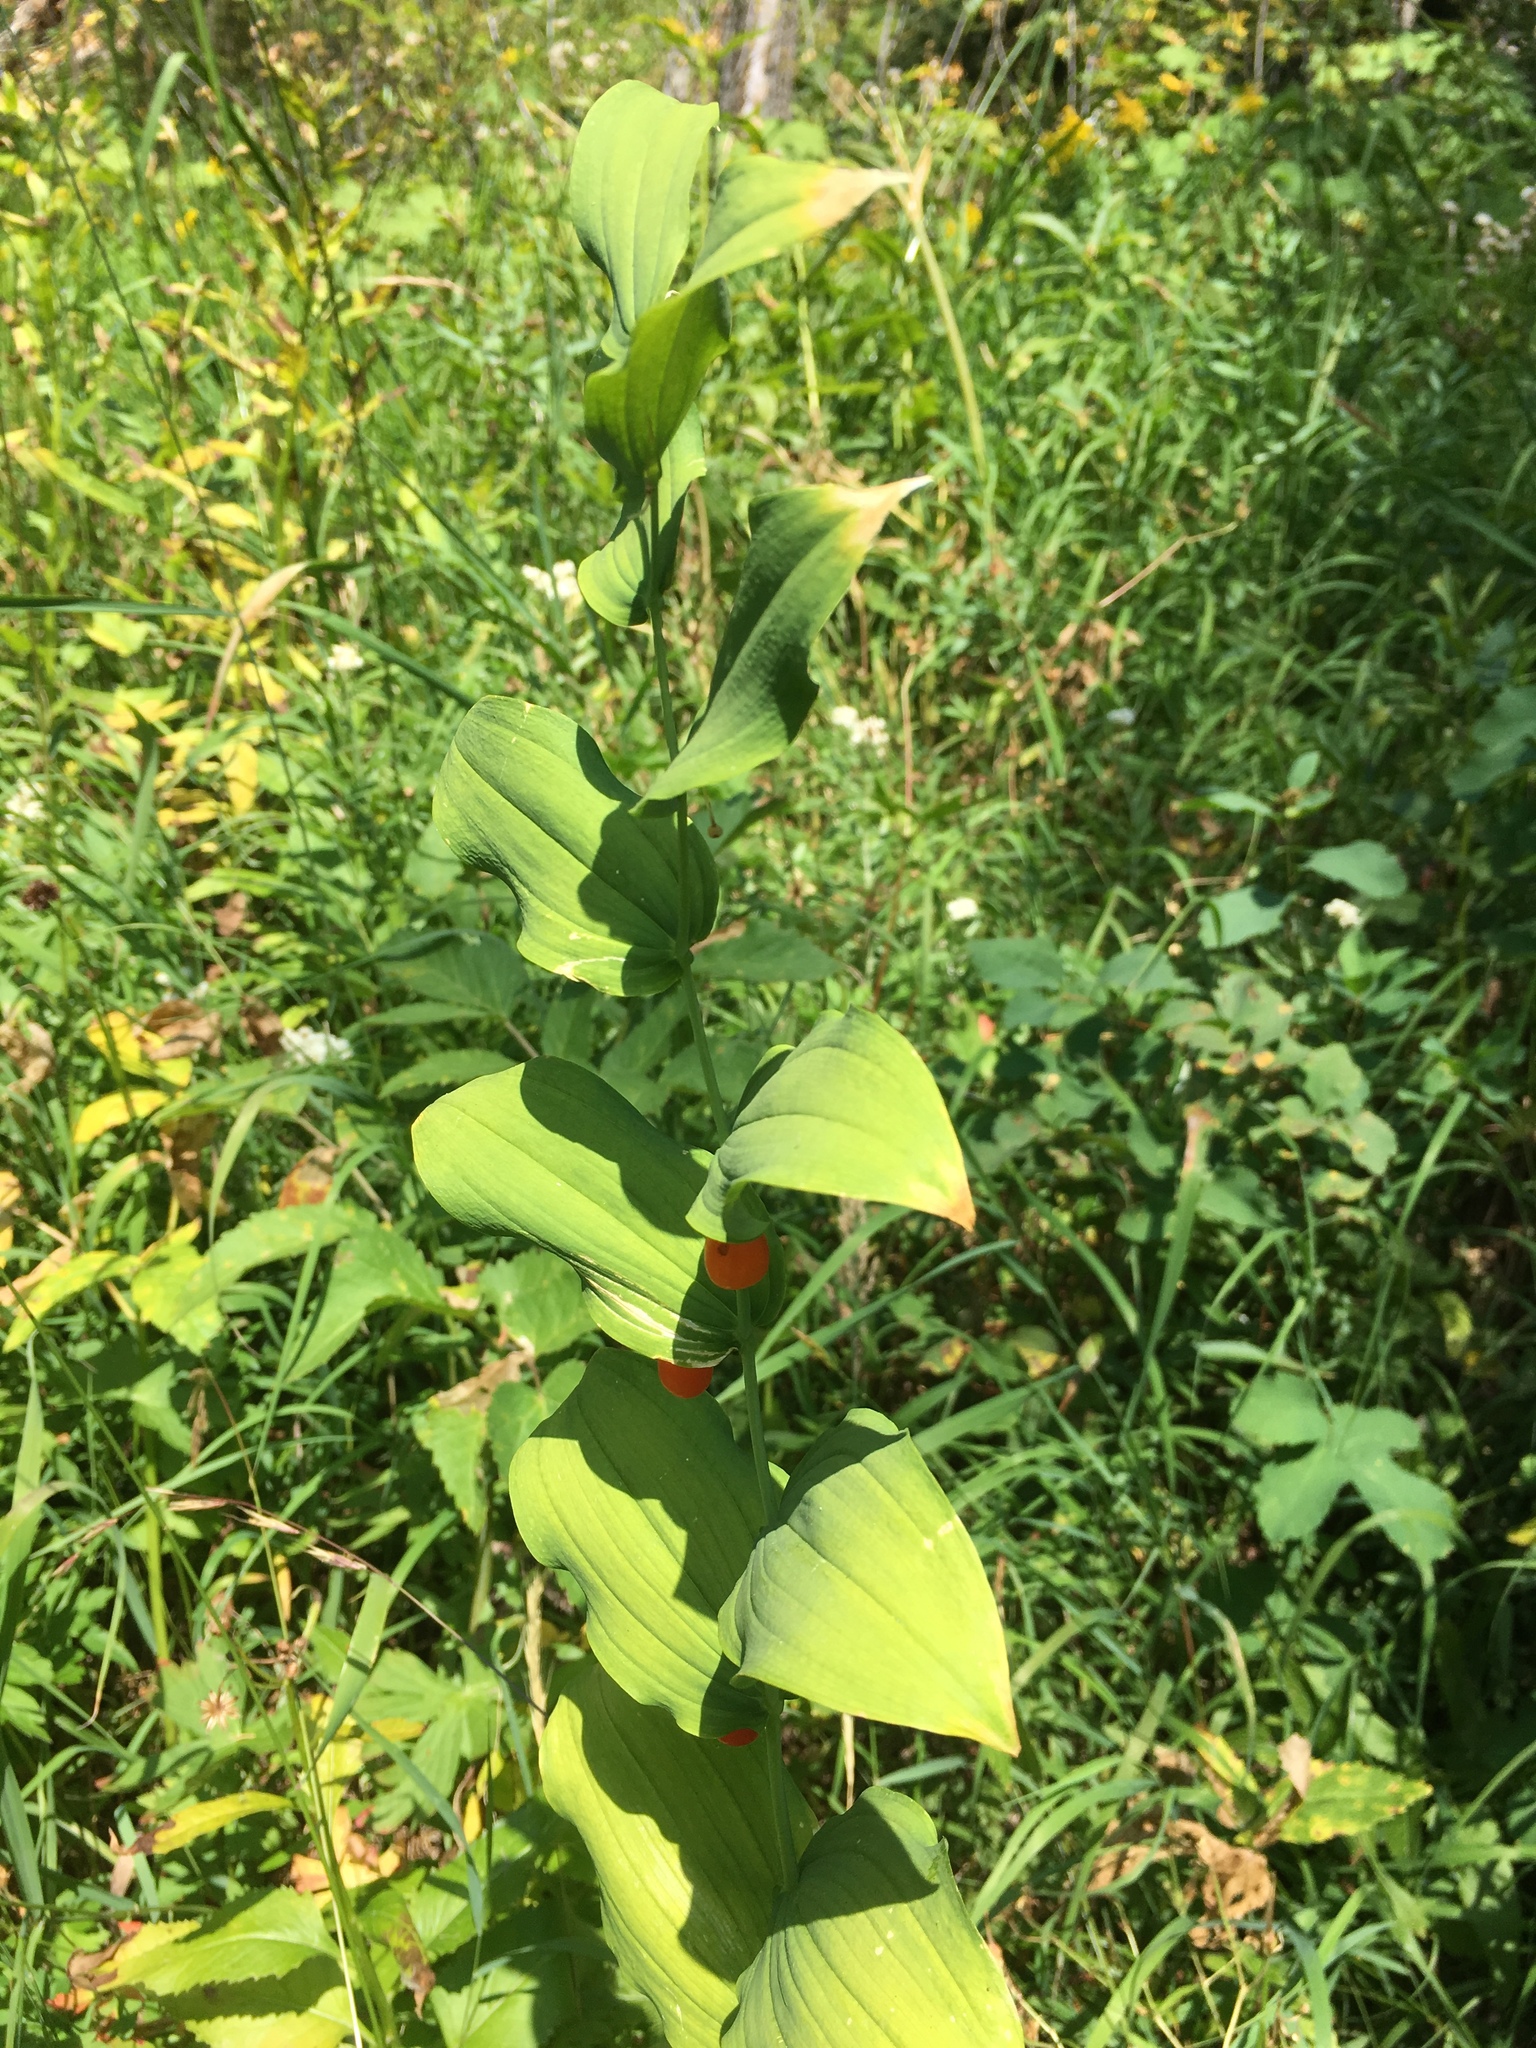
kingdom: Plantae
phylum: Tracheophyta
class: Liliopsida
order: Liliales
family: Liliaceae
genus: Streptopus
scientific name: Streptopus amplexifolius
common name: Clasp twisted stalk
